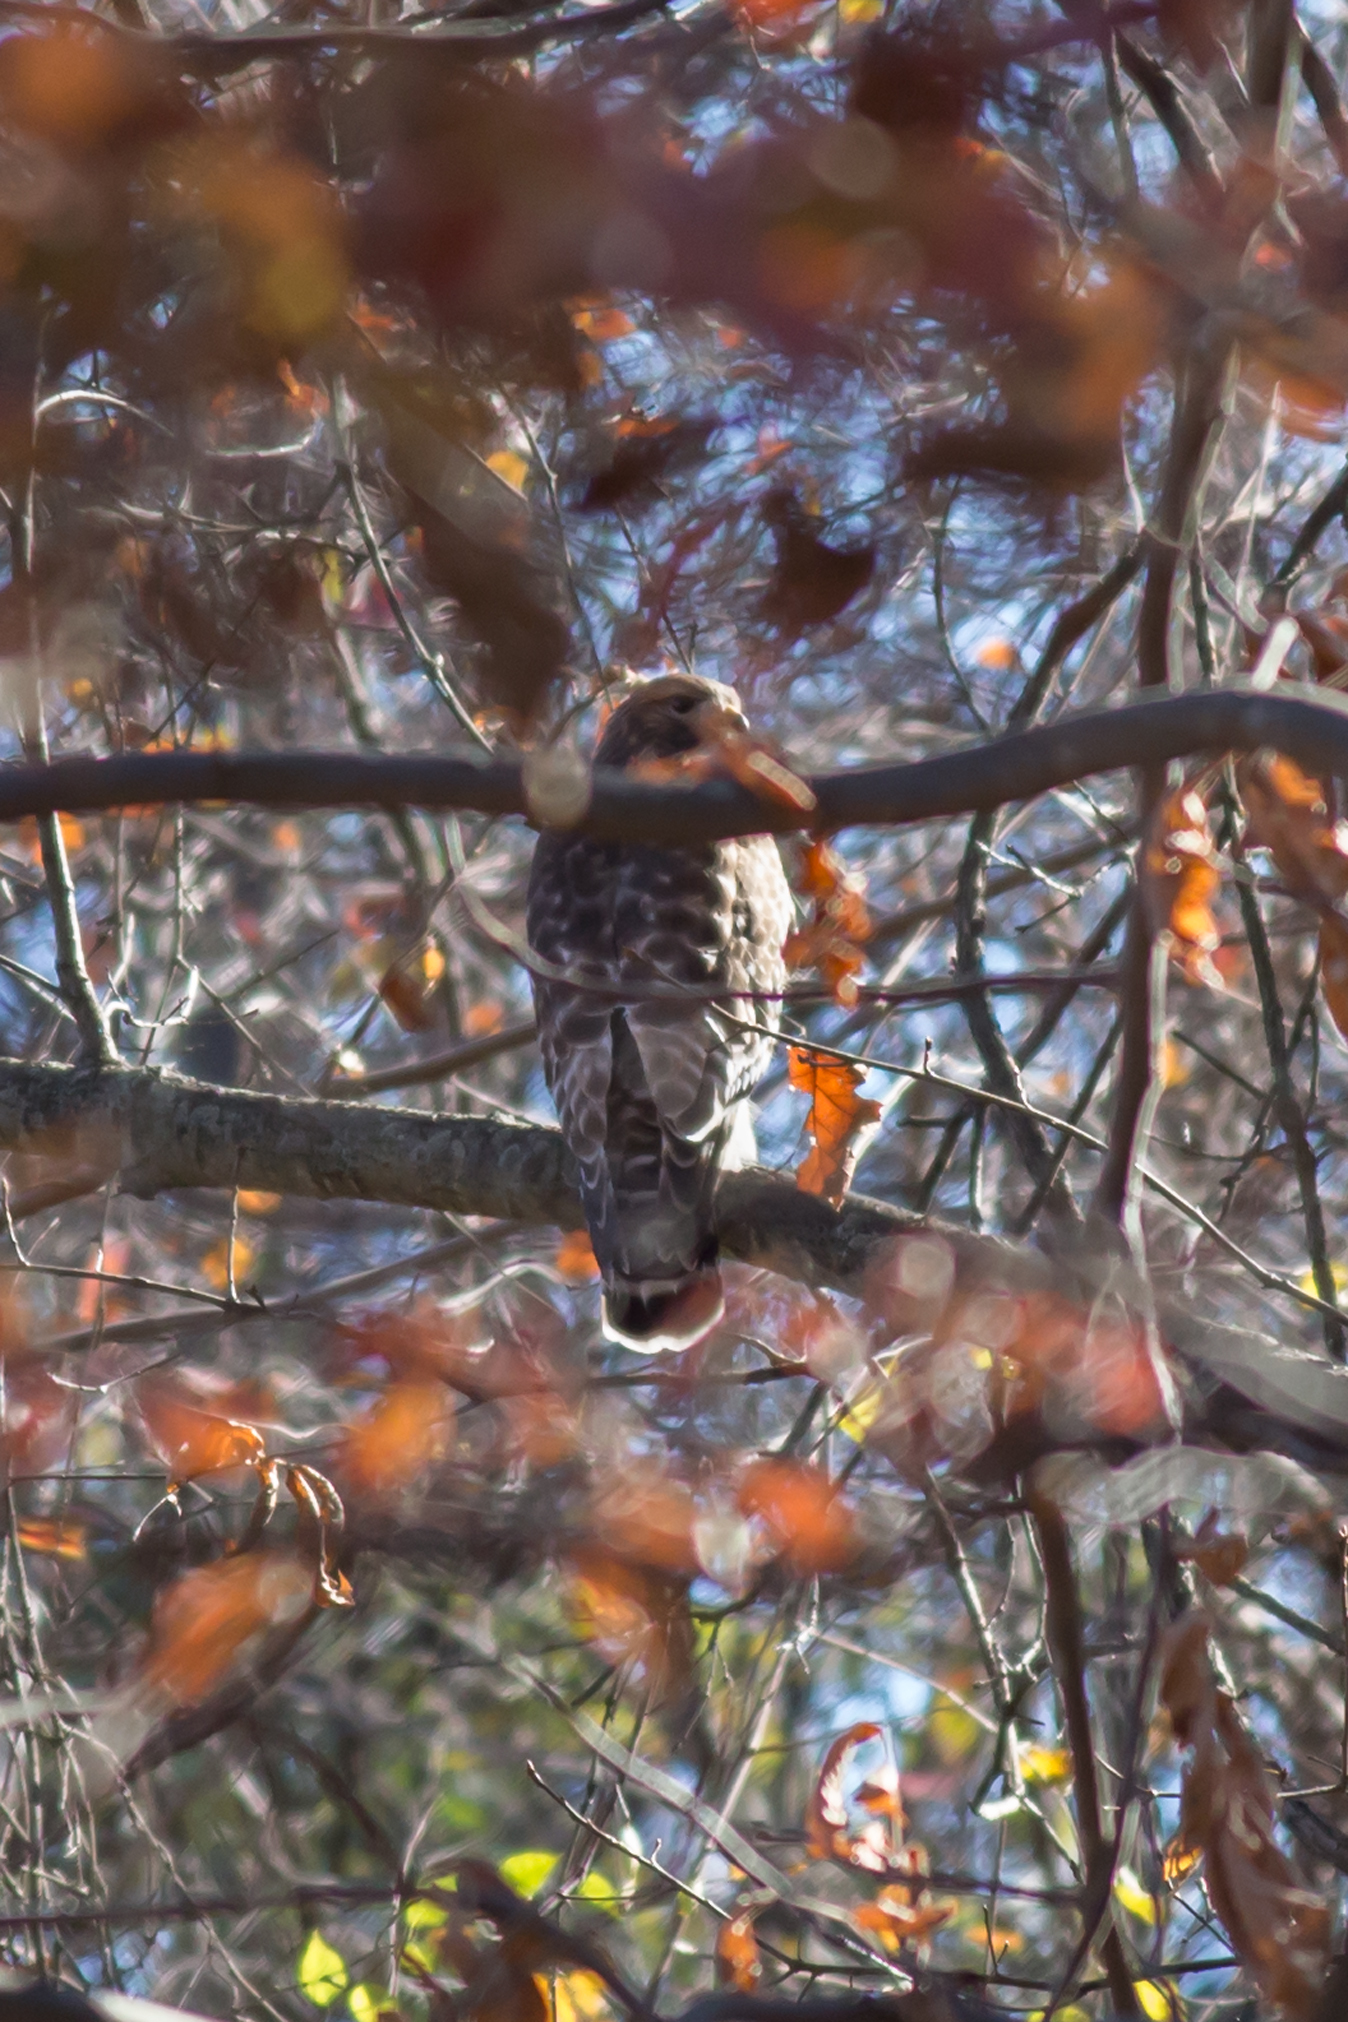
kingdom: Animalia
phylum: Chordata
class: Aves
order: Accipitriformes
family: Accipitridae
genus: Buteo
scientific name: Buteo lineatus
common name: Red-shouldered hawk
